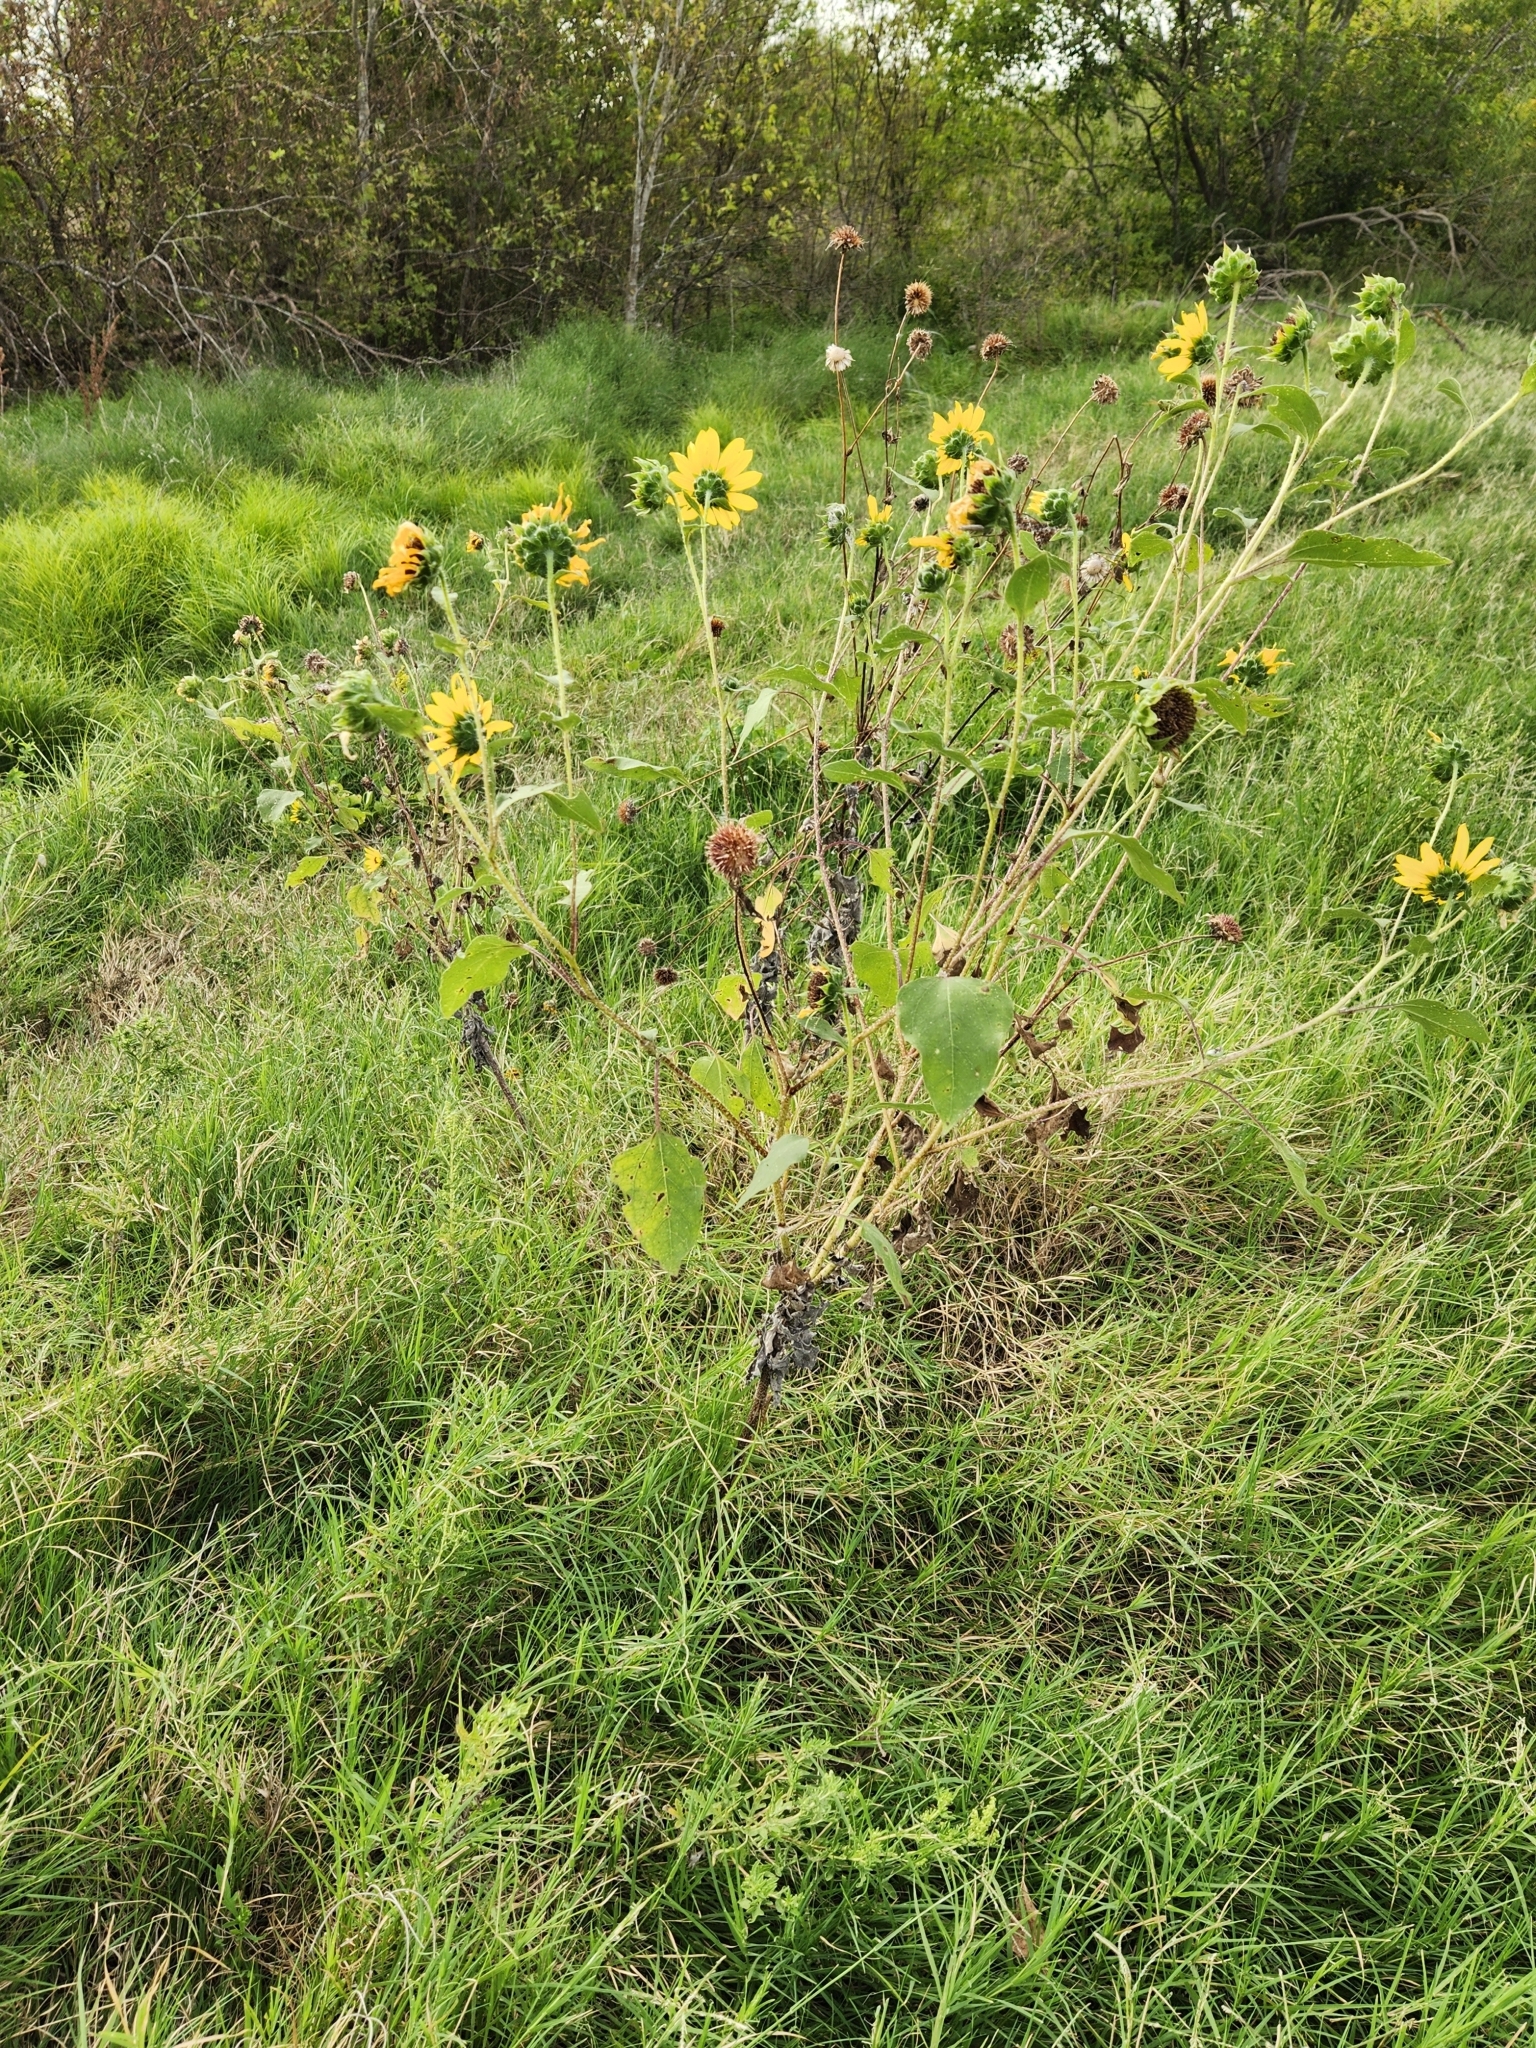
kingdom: Plantae
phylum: Tracheophyta
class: Magnoliopsida
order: Asterales
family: Asteraceae
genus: Helianthus
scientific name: Helianthus annuus
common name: Sunflower
